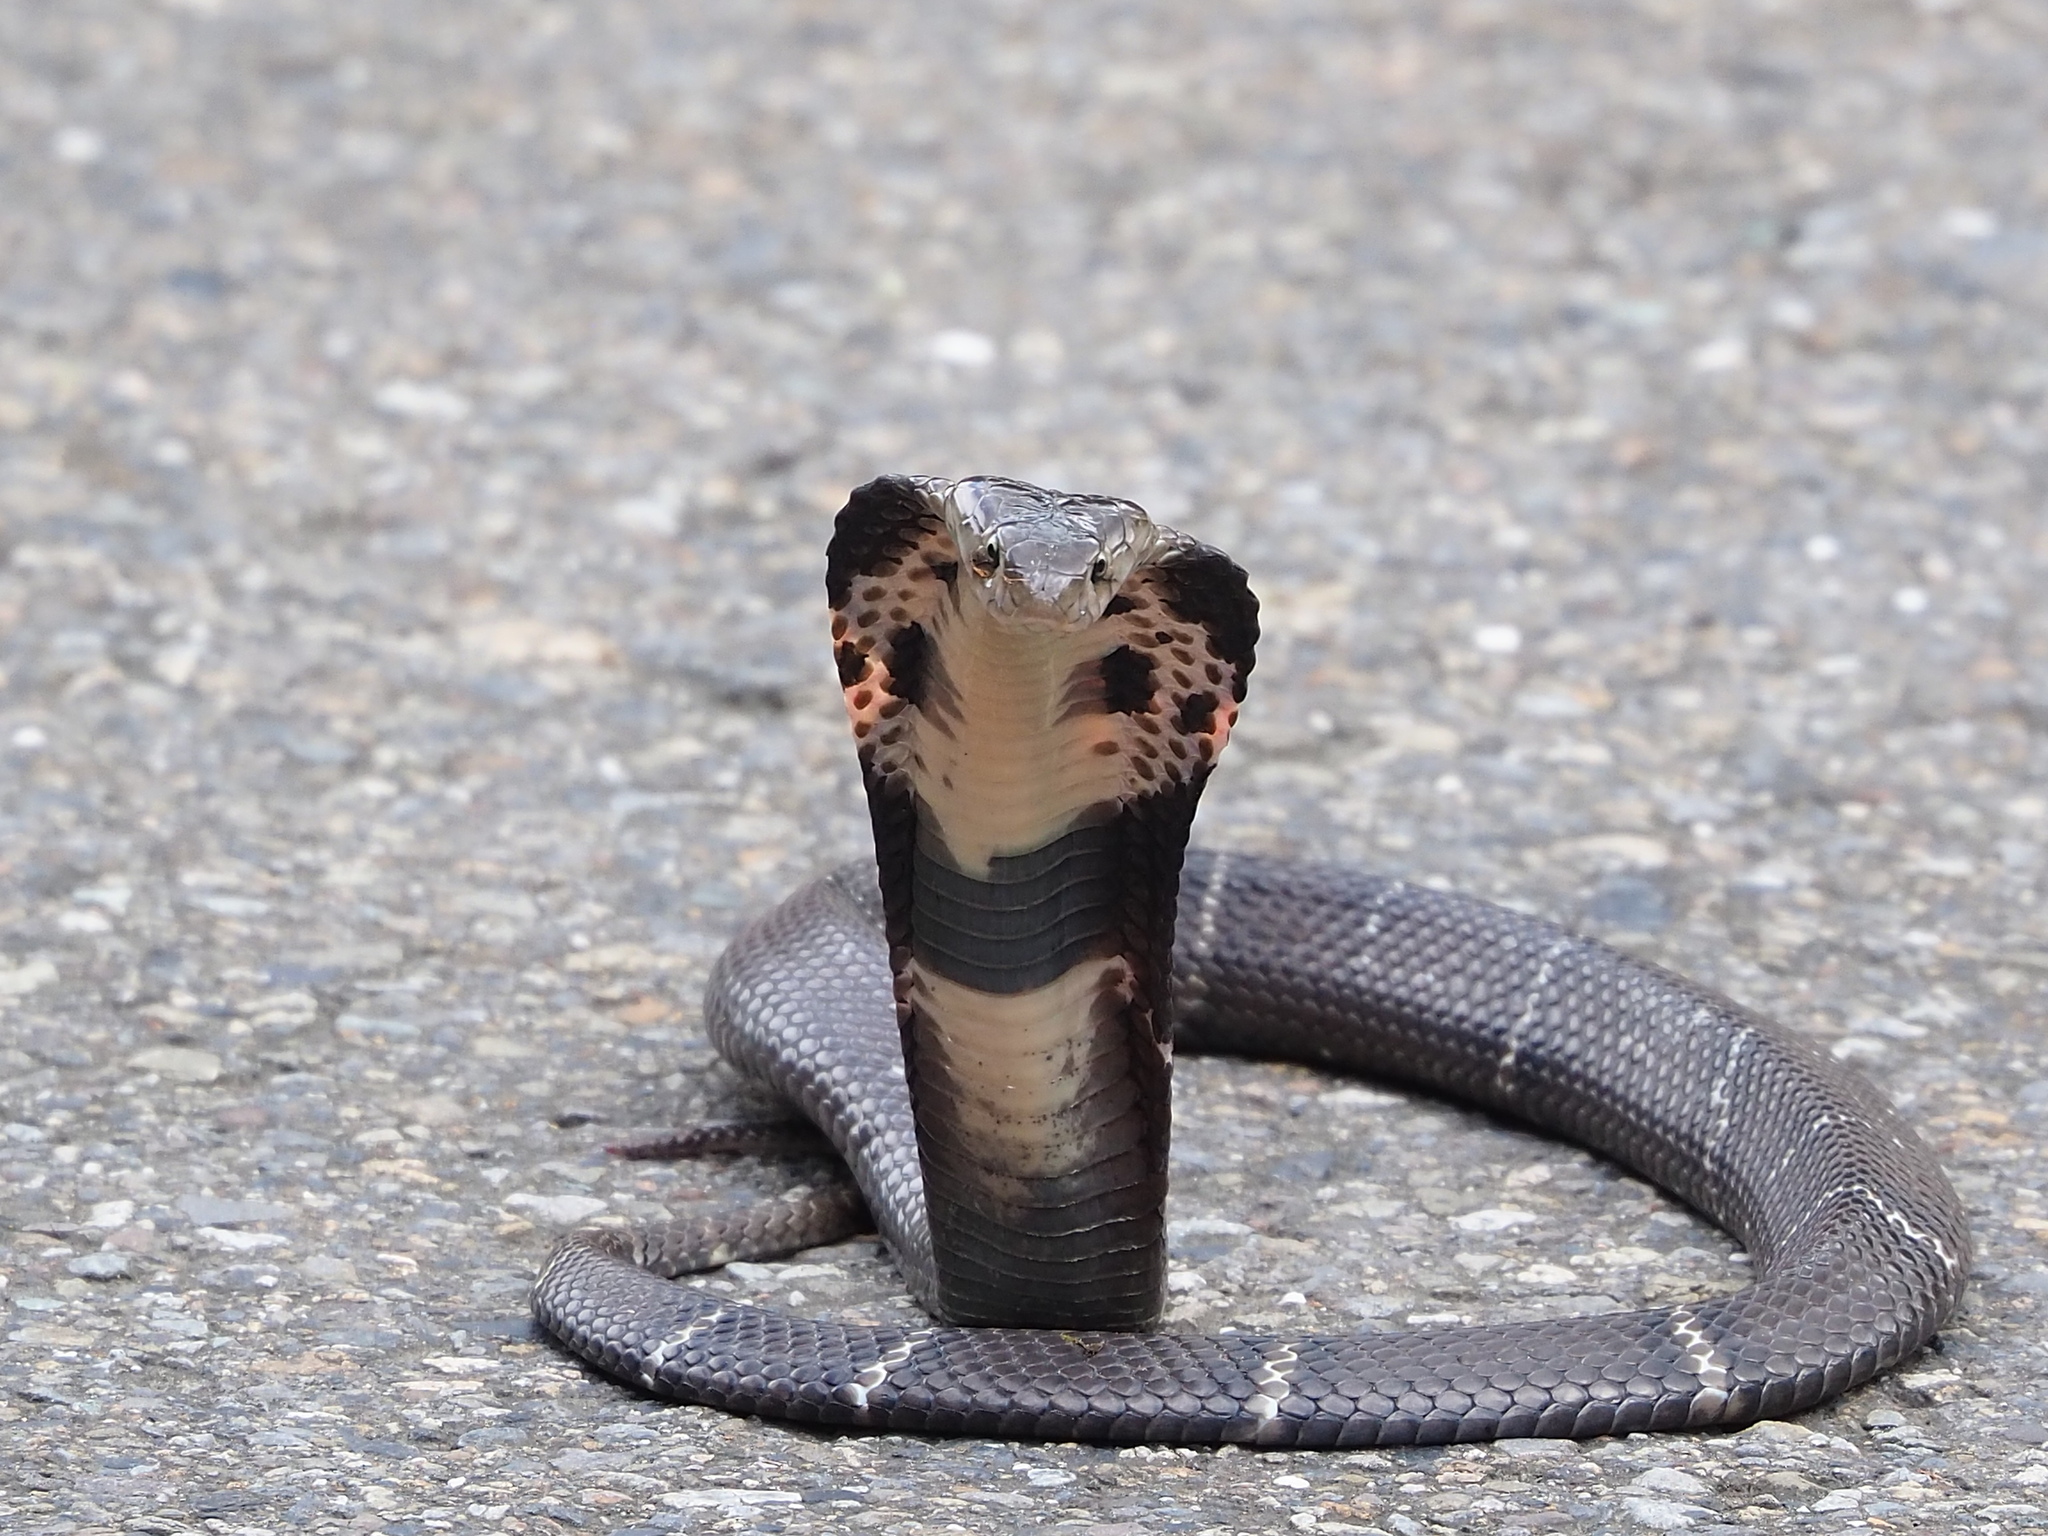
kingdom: Animalia
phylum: Chordata
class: Squamata
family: Elapidae
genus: Naja
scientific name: Naja atra
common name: Chinese cobra
